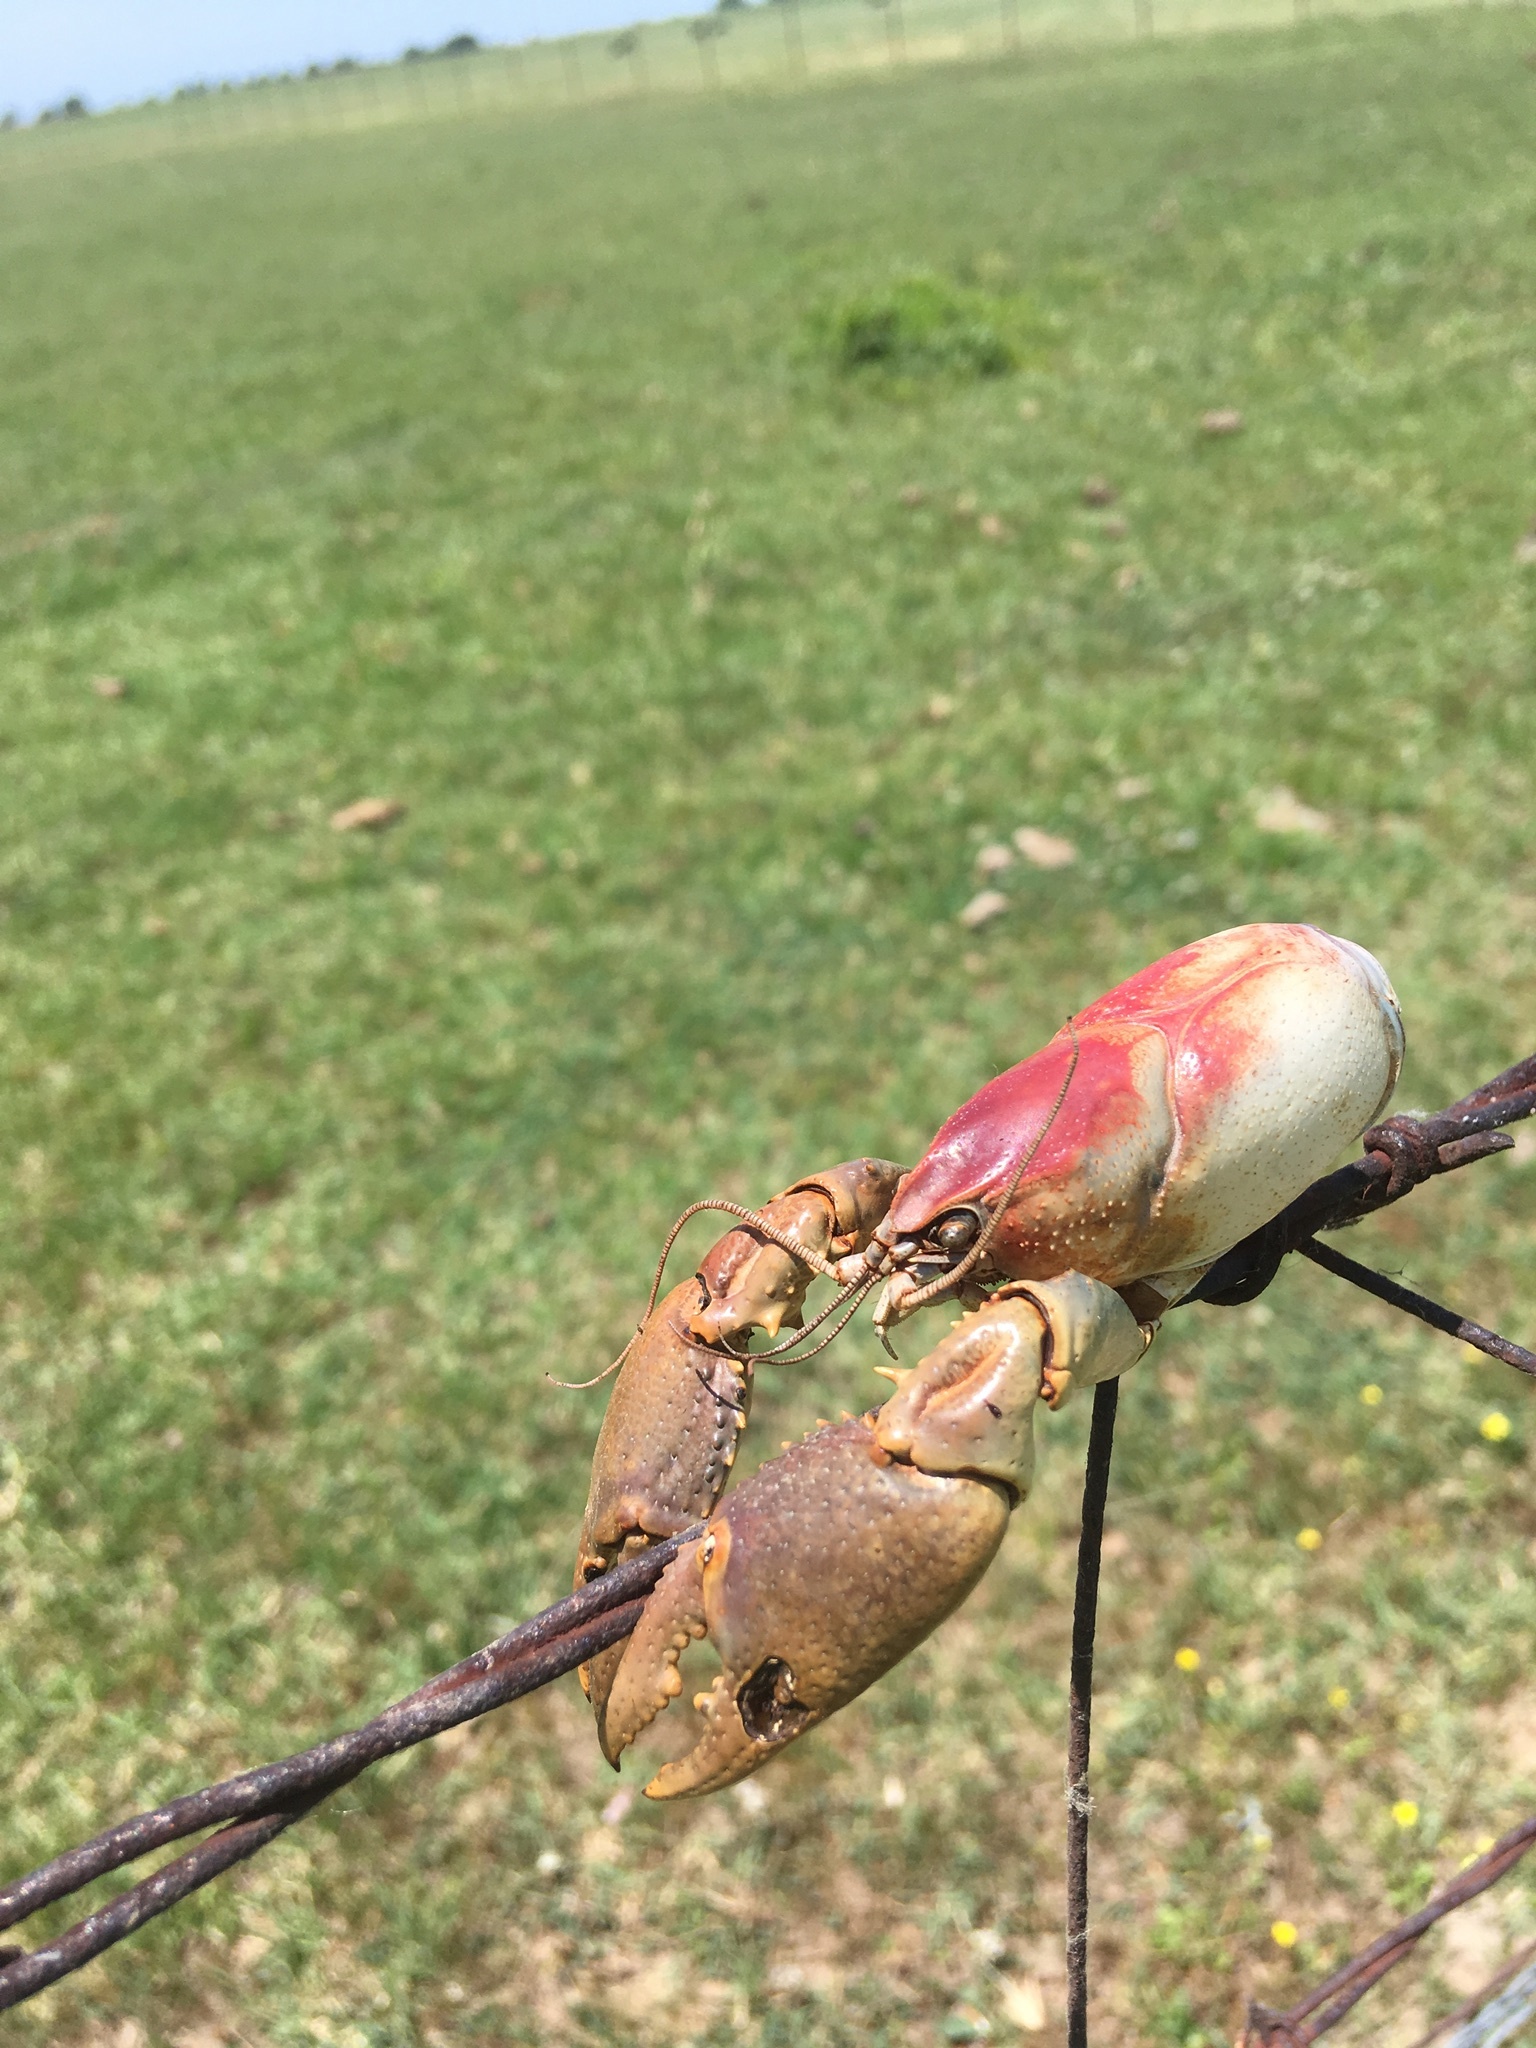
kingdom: Animalia
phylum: Arthropoda
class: Malacostraca
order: Decapoda
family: Cambaridae
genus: Procambarus
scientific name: Procambarus liberorum
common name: Osage burrowing crayfish
